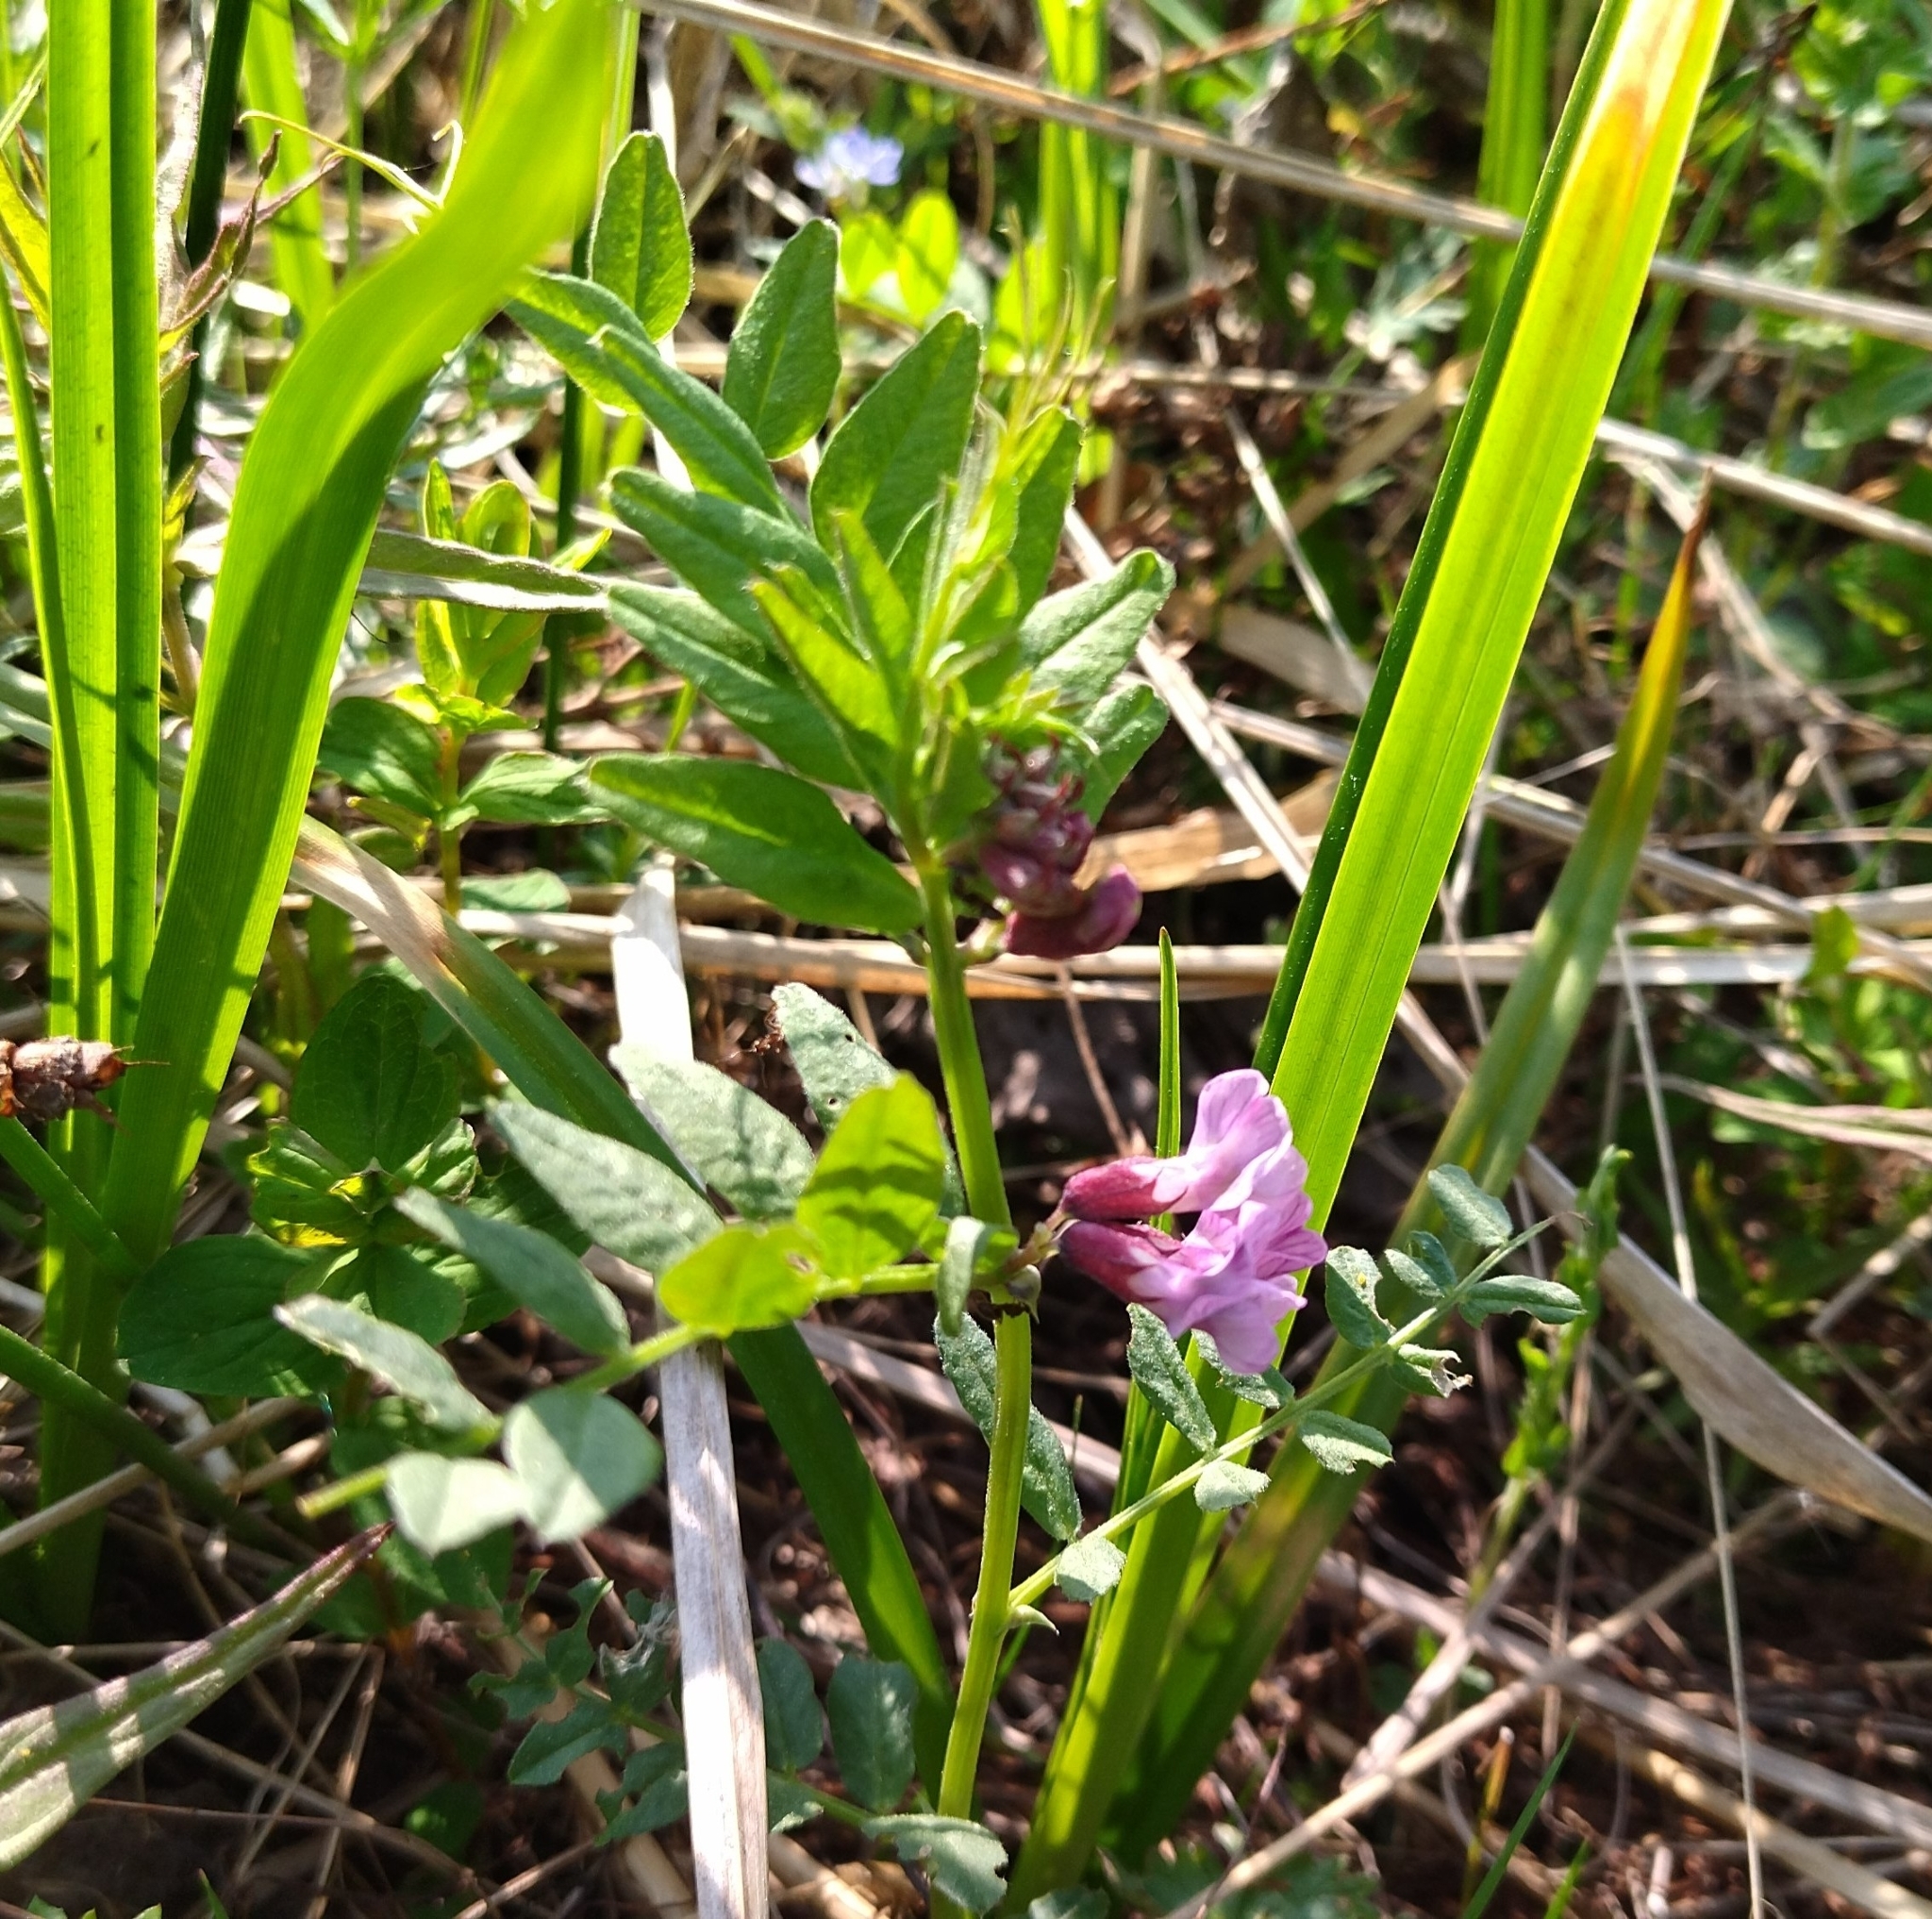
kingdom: Plantae
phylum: Tracheophyta
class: Magnoliopsida
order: Fabales
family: Fabaceae
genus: Vicia
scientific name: Vicia sepium
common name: Bush vetch
